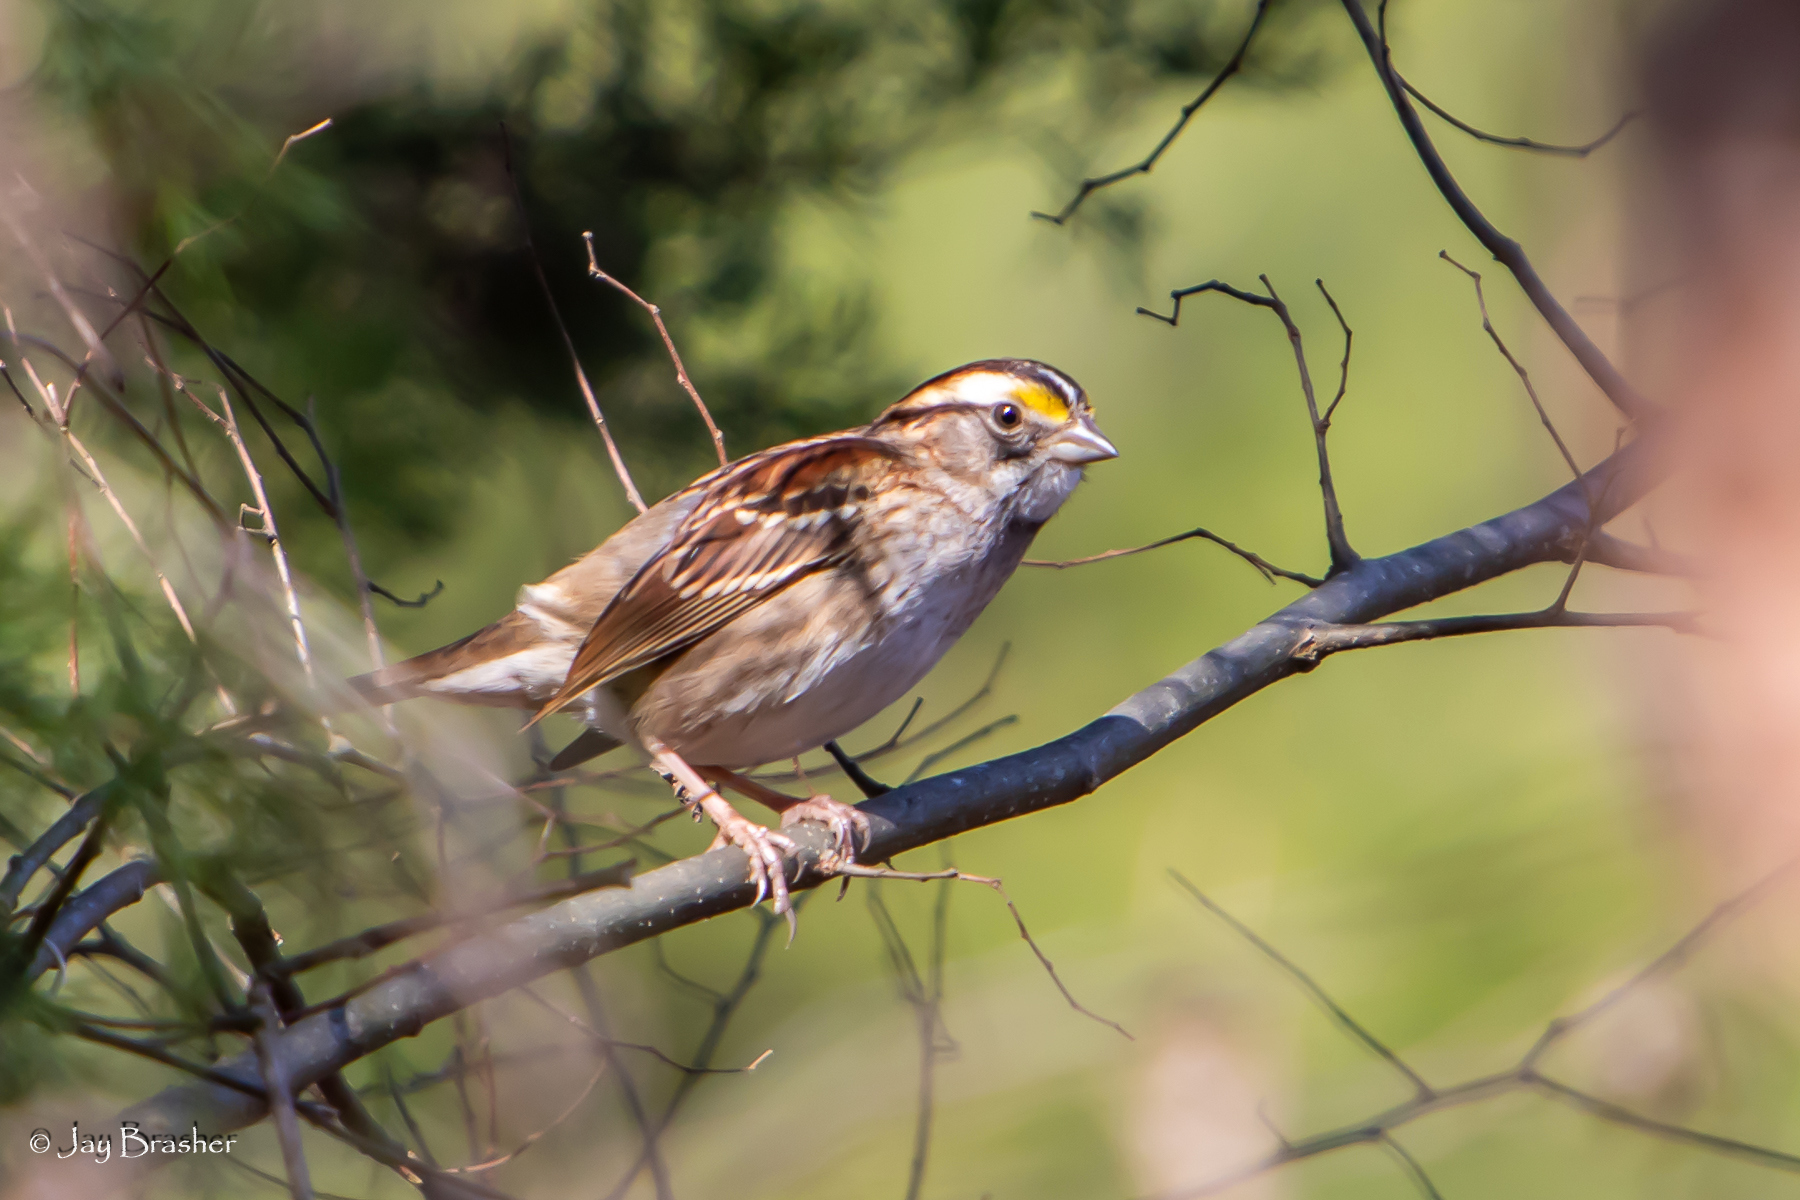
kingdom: Animalia
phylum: Chordata
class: Aves
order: Passeriformes
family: Passerellidae
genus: Zonotrichia
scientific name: Zonotrichia albicollis
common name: White-throated sparrow
